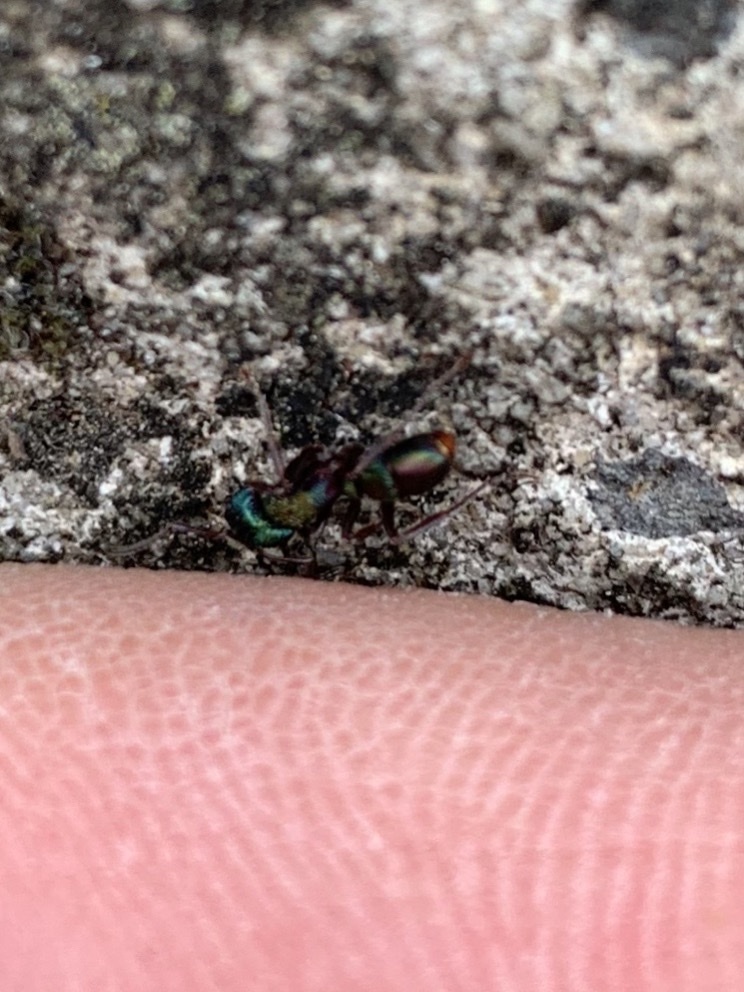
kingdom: Animalia
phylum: Arthropoda
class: Insecta
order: Hymenoptera
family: Formicidae
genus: Rhytidoponera
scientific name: Rhytidoponera metallica
